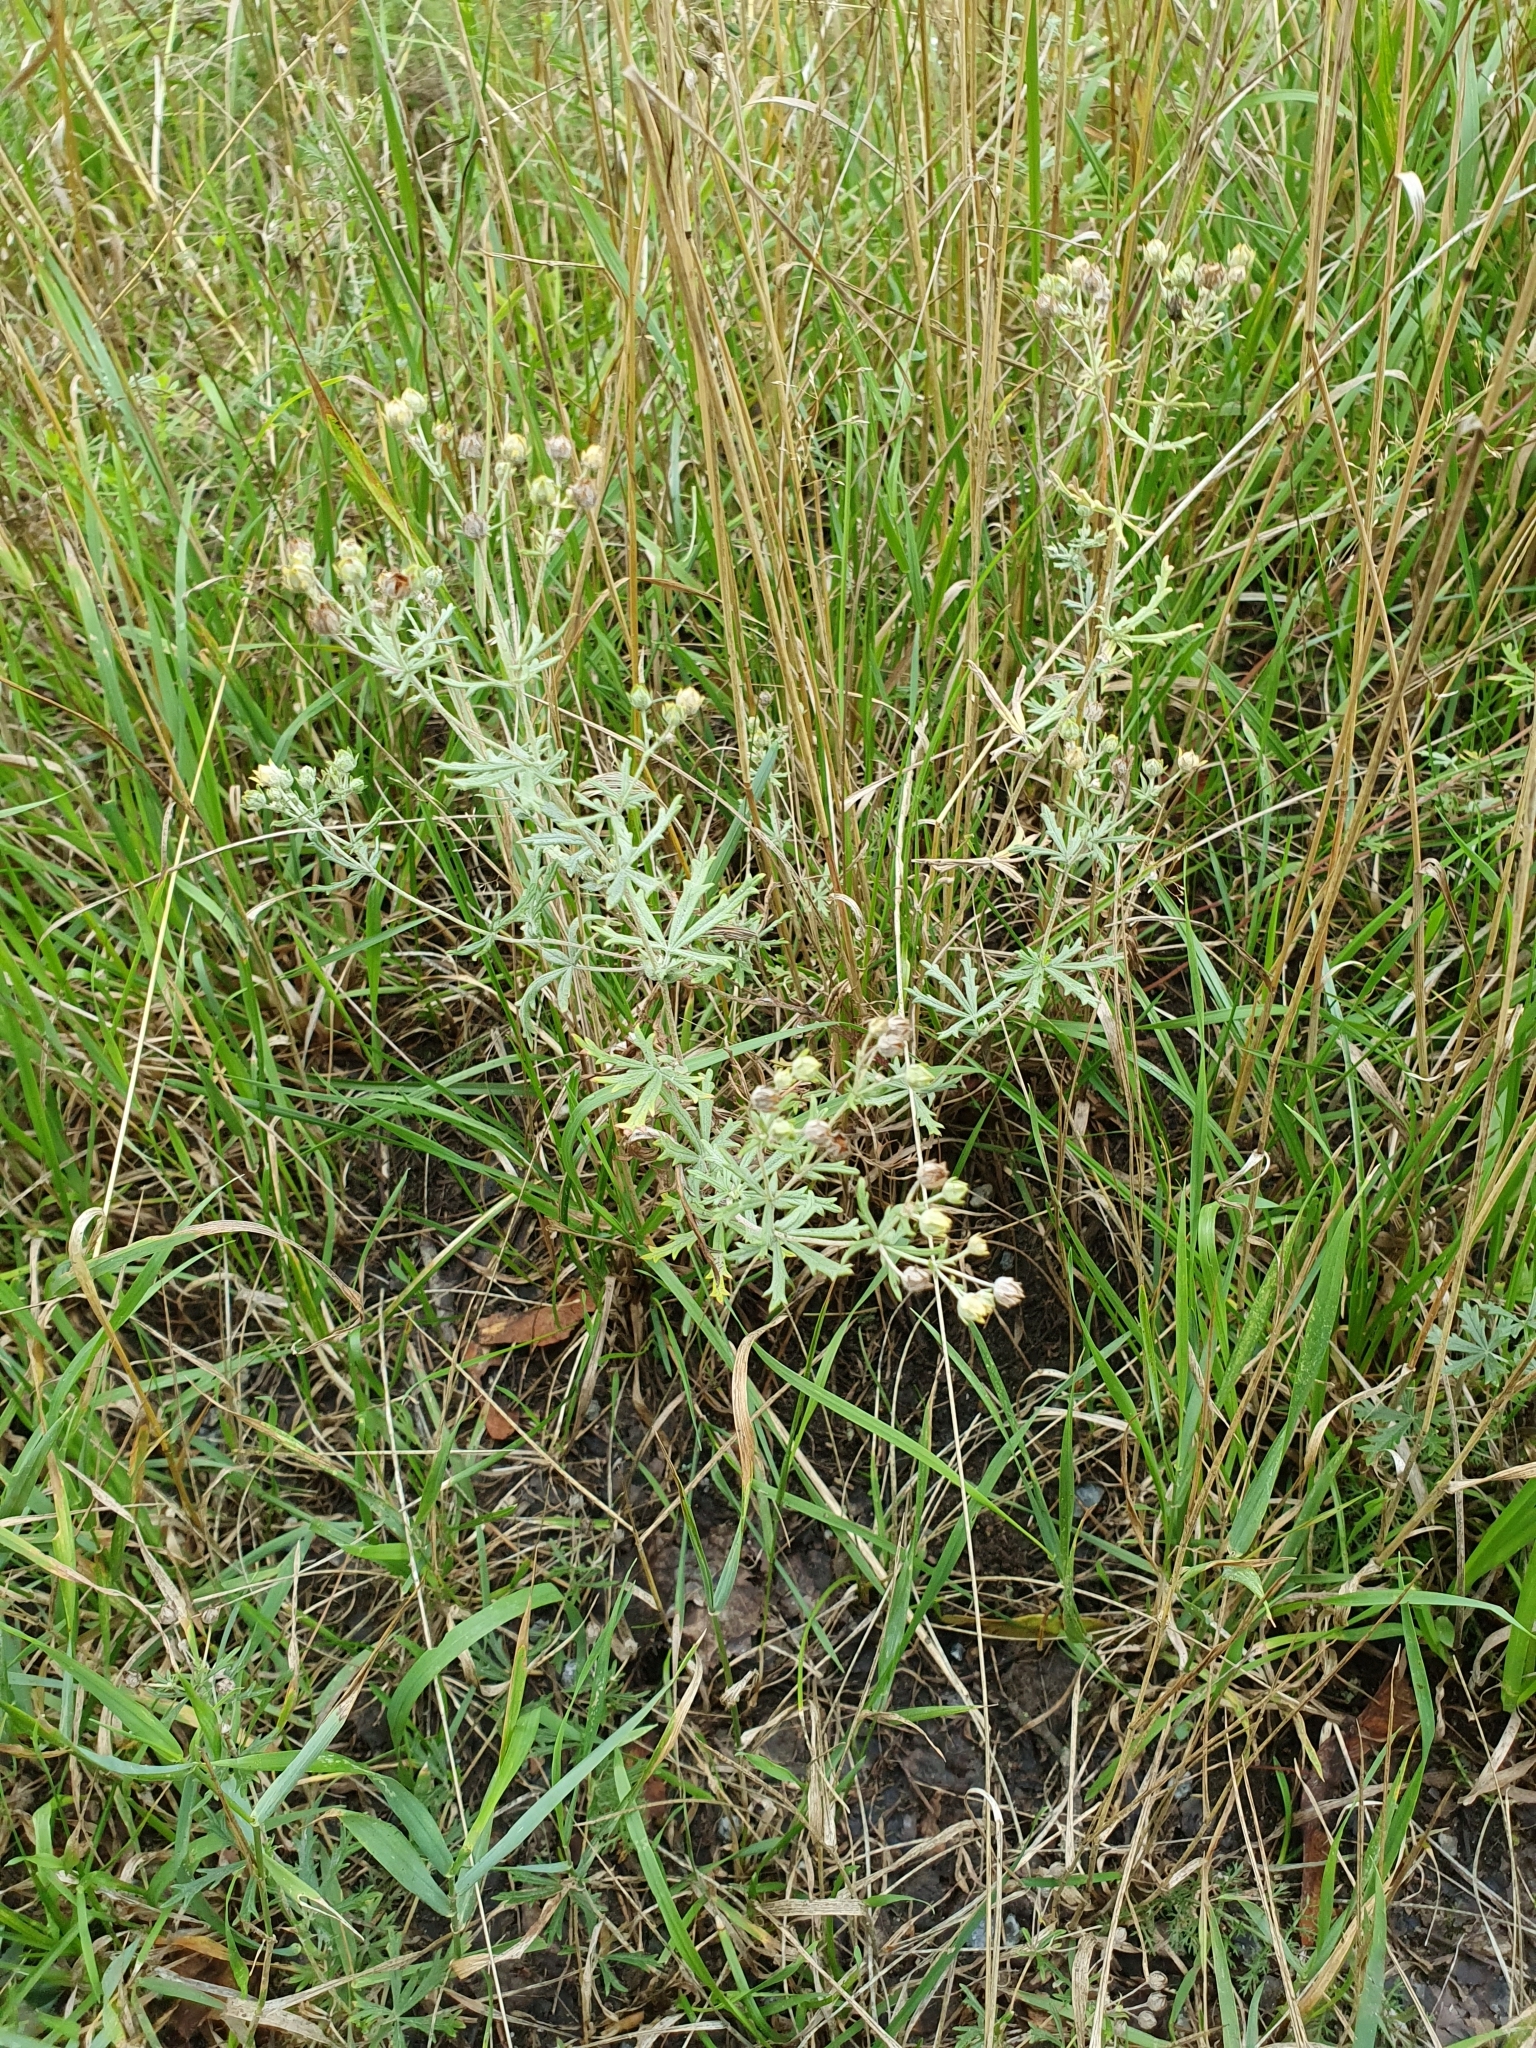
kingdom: Plantae
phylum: Tracheophyta
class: Magnoliopsida
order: Rosales
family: Rosaceae
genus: Potentilla
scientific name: Potentilla argentea
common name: Hoary cinquefoil
